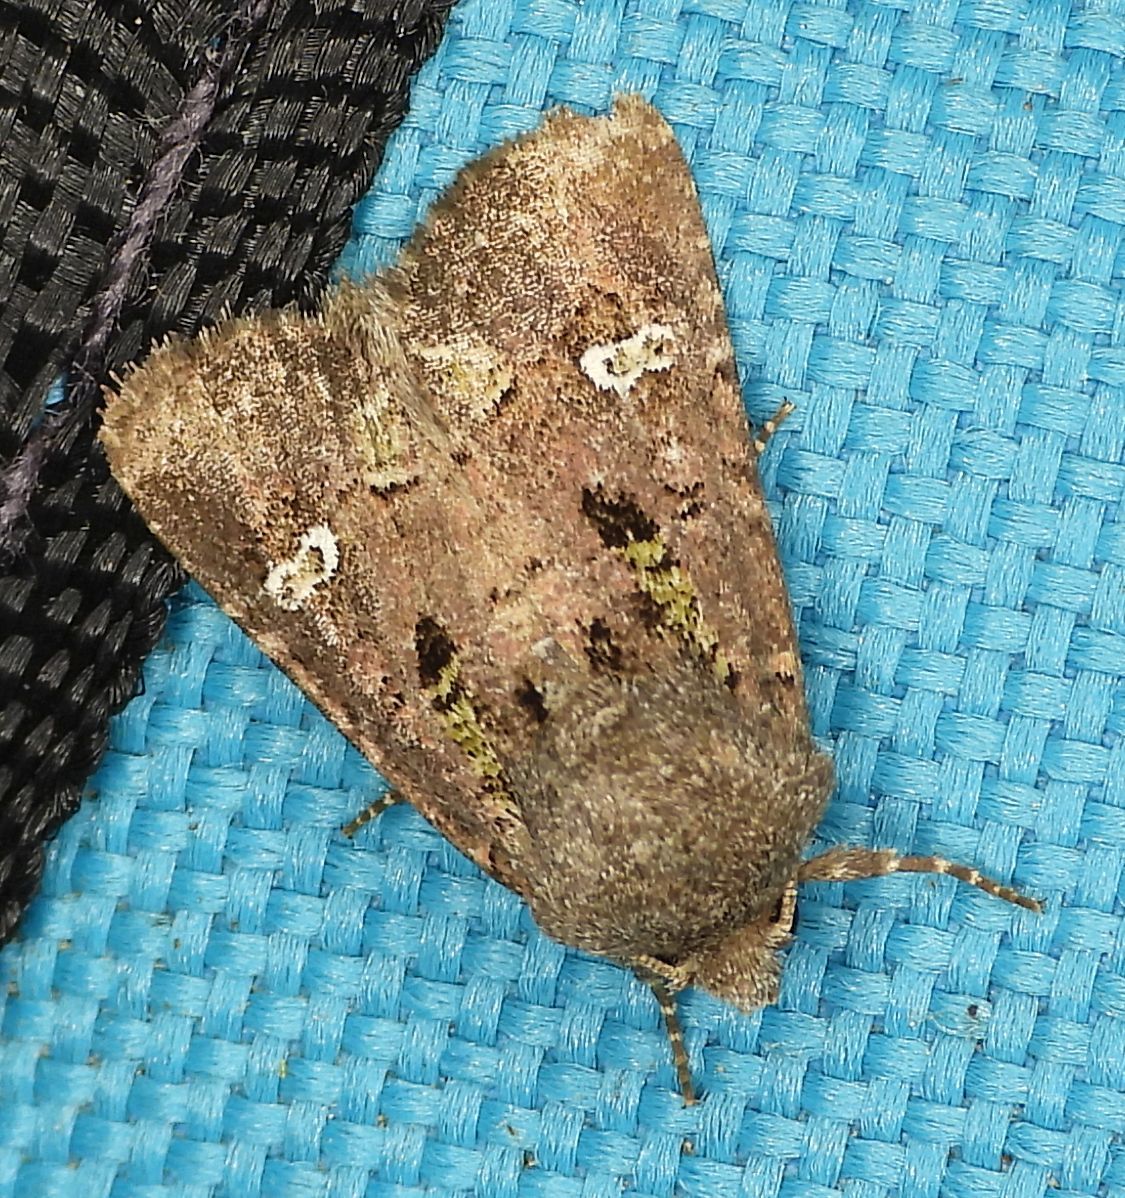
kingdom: Animalia
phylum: Arthropoda
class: Insecta
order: Lepidoptera
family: Noctuidae
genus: Lacinipolia
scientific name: Lacinipolia renigera
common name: Kidney-spotted minor
